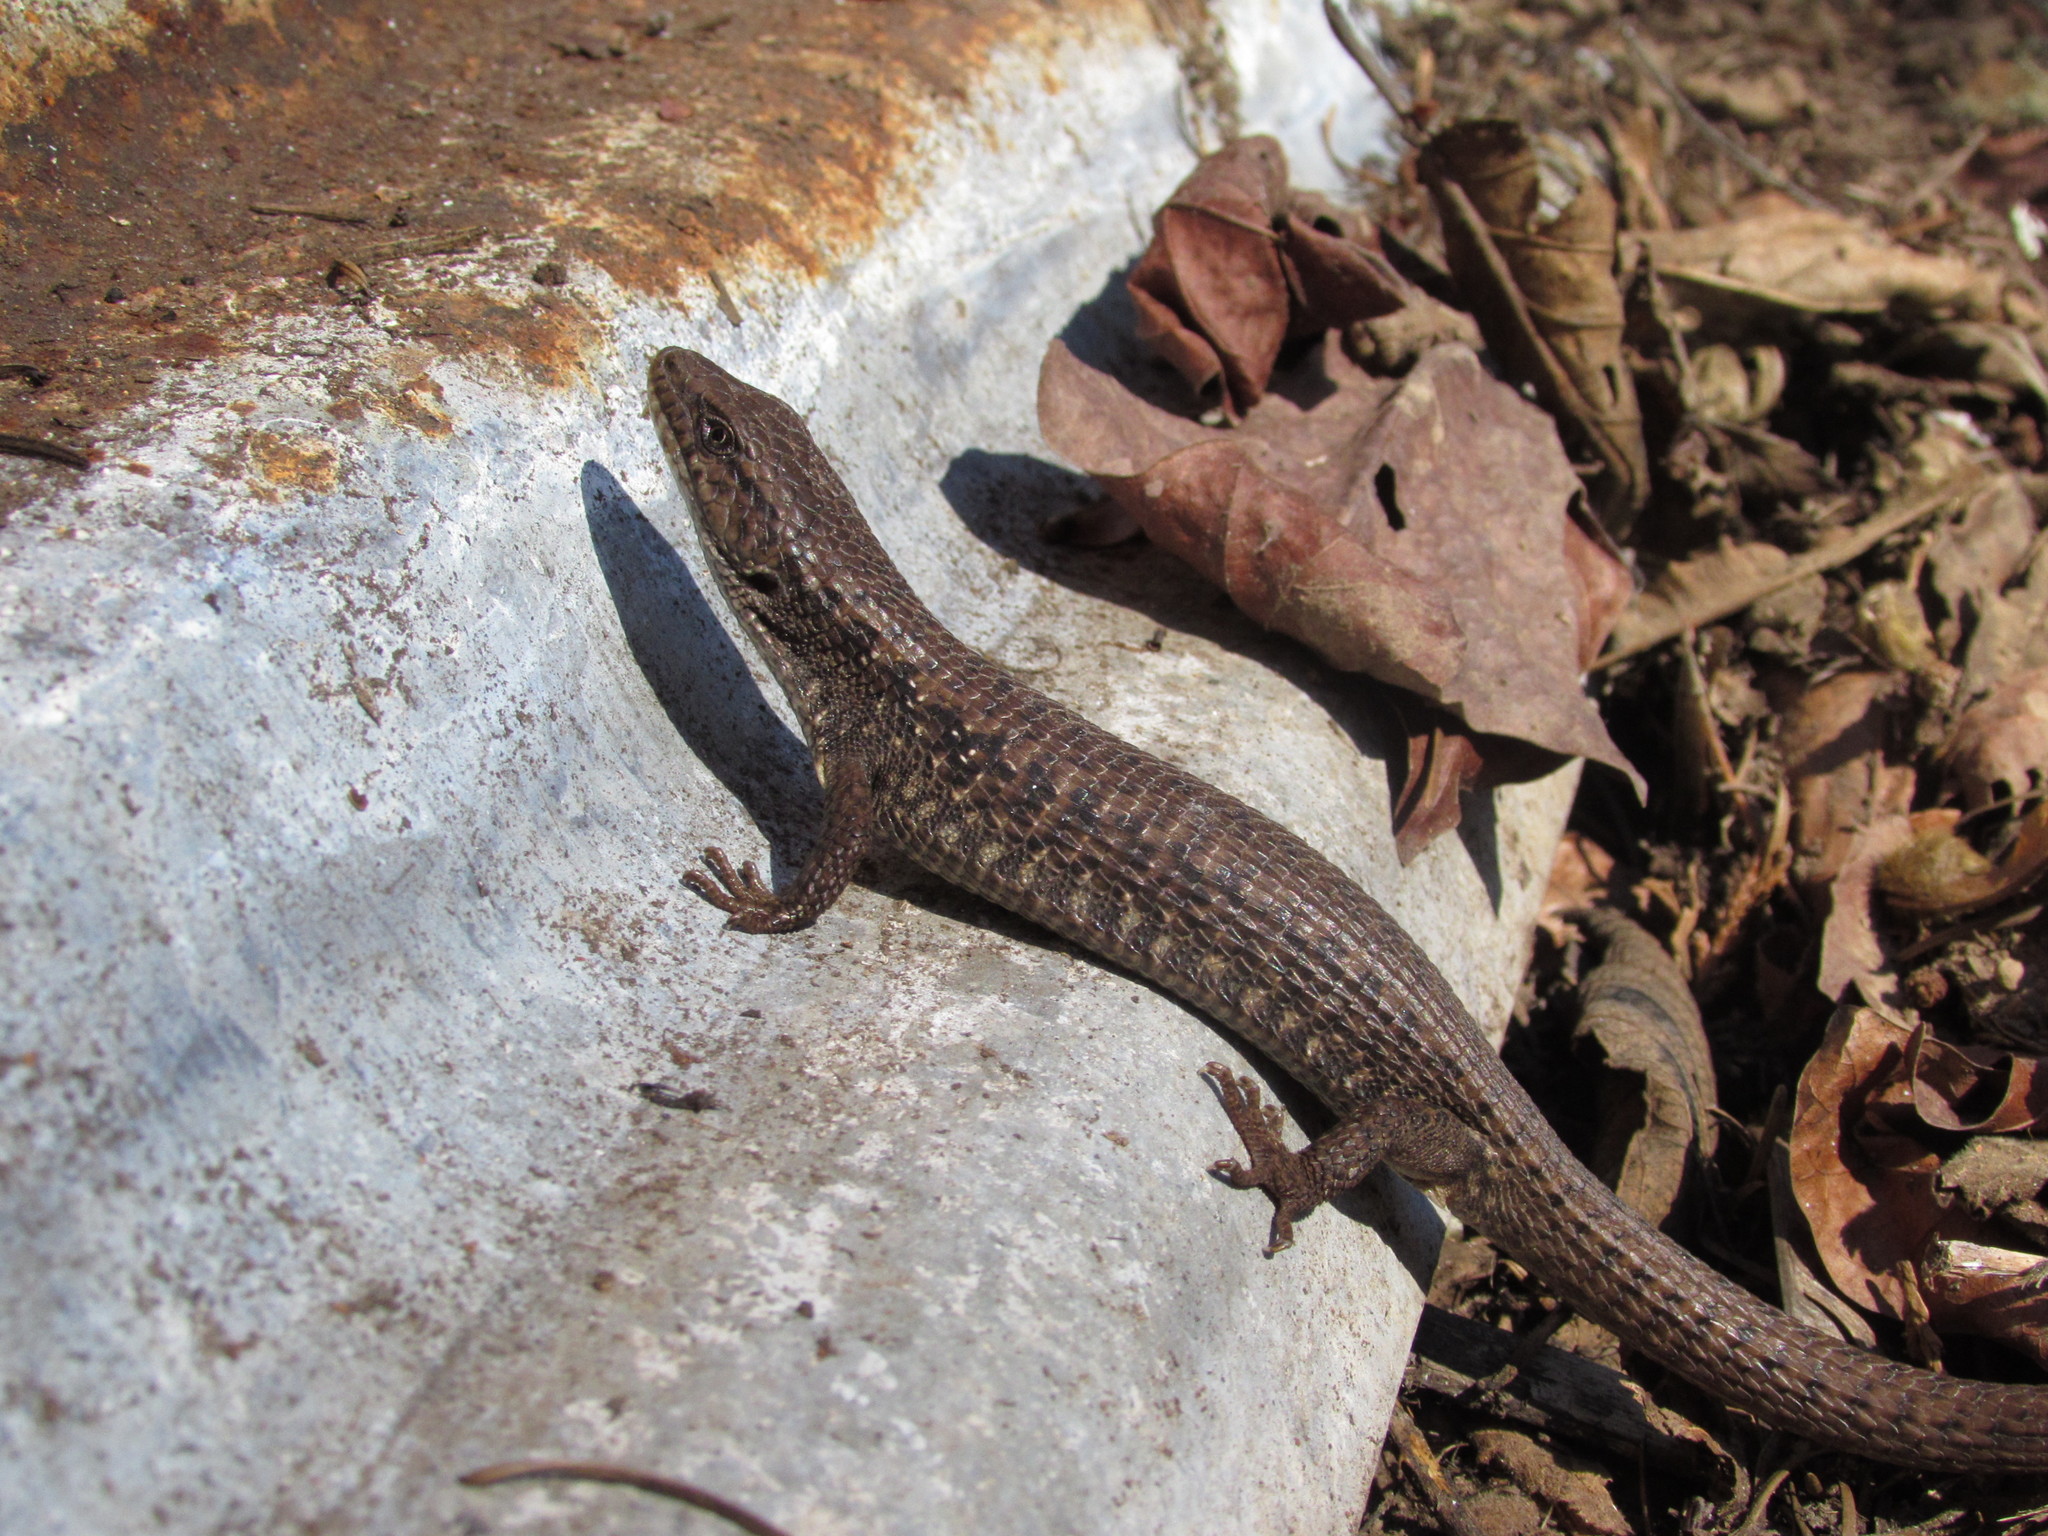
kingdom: Animalia
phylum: Chordata
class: Squamata
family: Anguidae
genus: Elgaria
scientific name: Elgaria coerulea
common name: Northern alligator lizard
